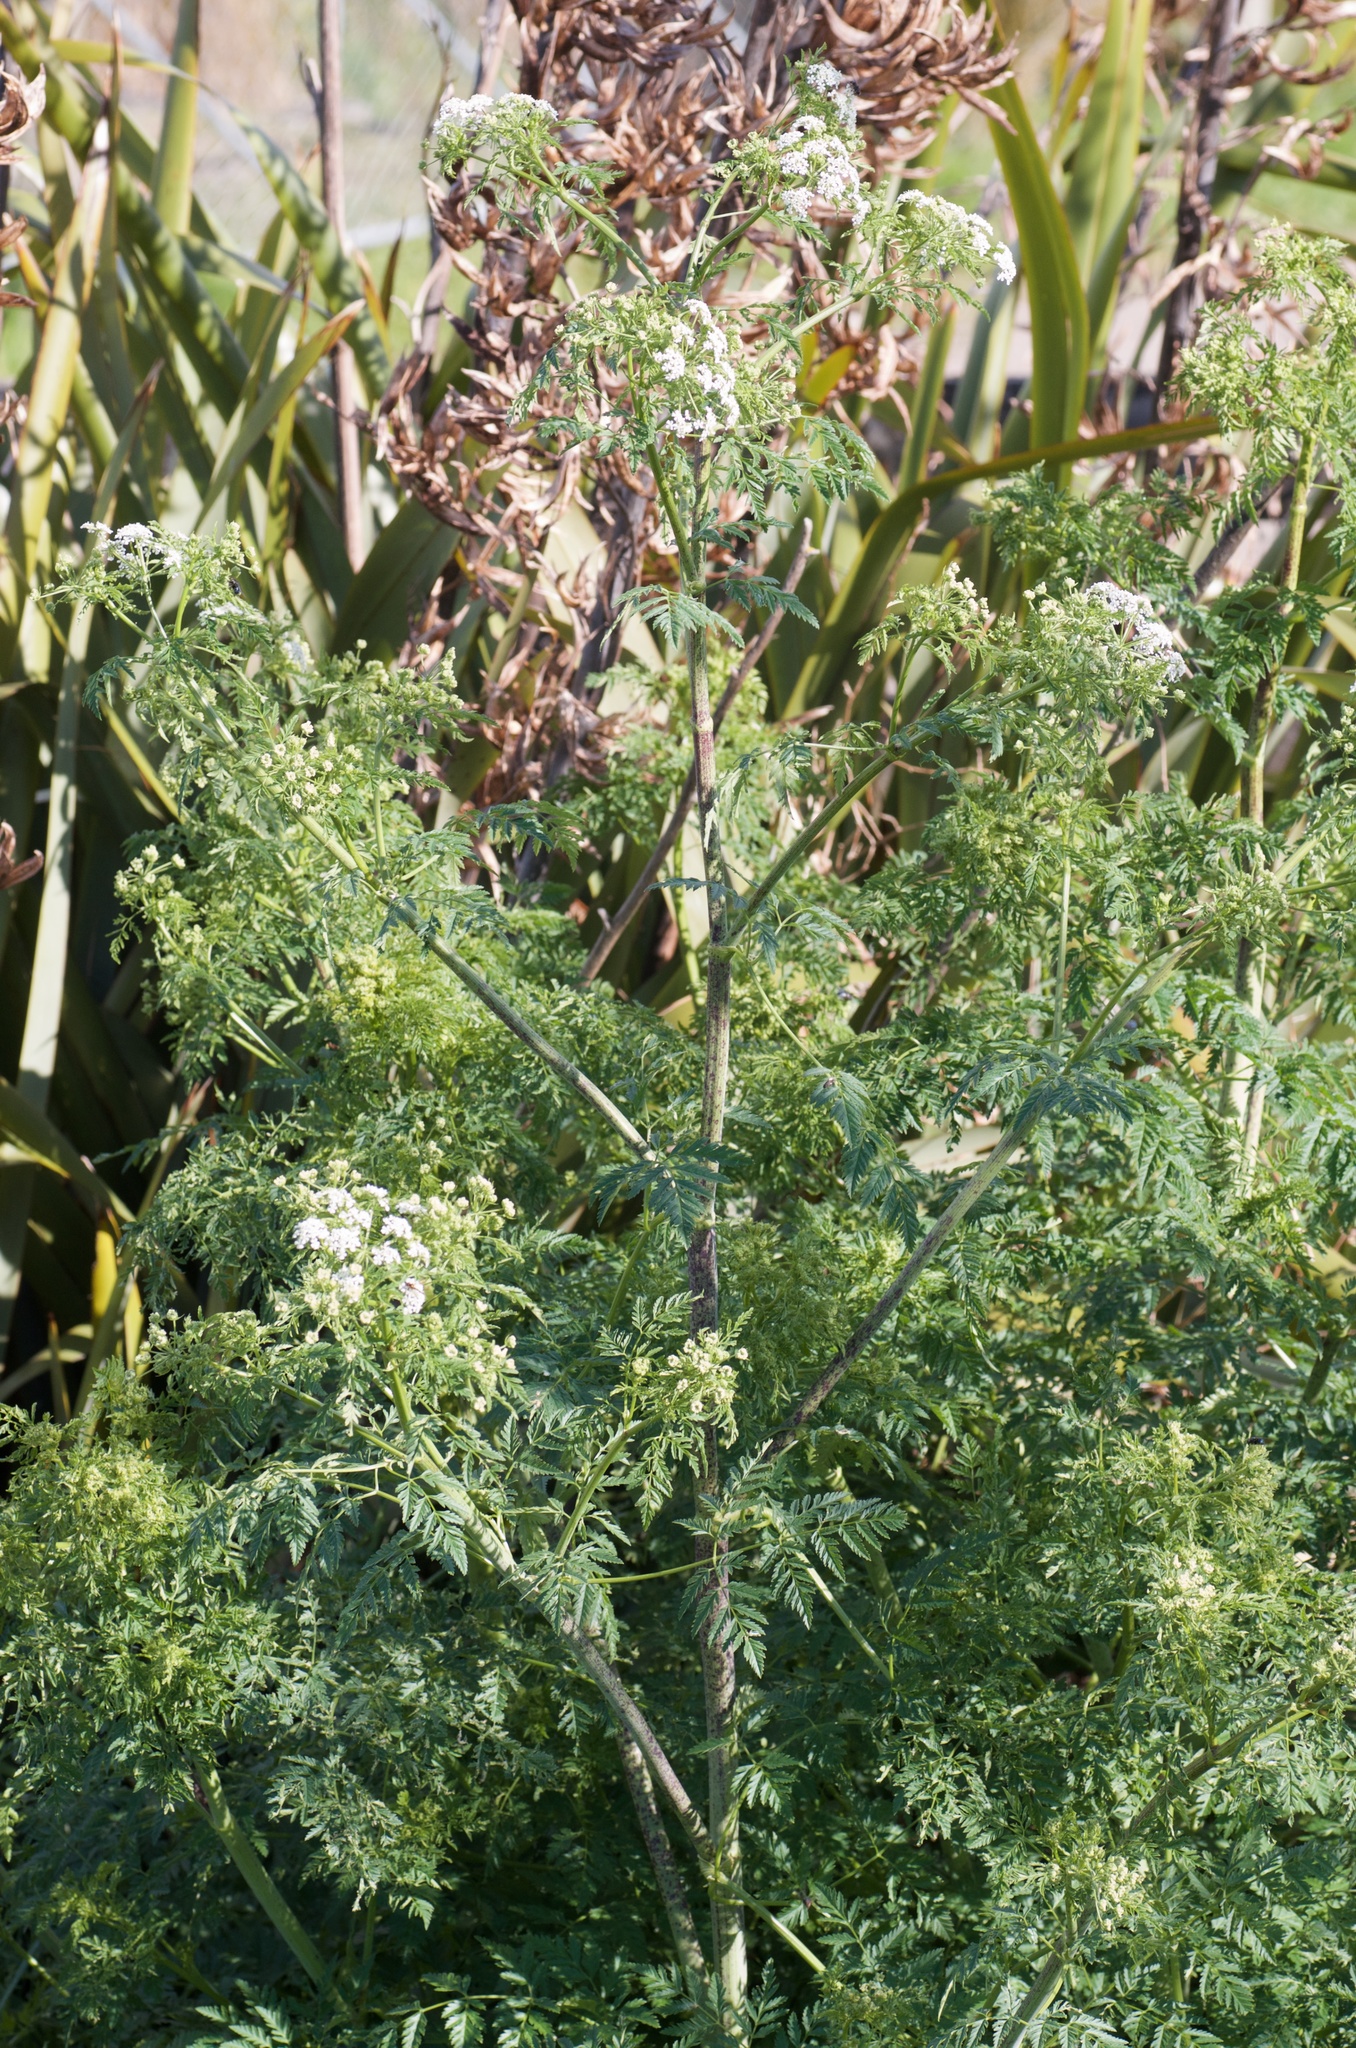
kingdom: Plantae
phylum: Tracheophyta
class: Magnoliopsida
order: Apiales
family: Apiaceae
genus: Conium
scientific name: Conium maculatum
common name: Hemlock
